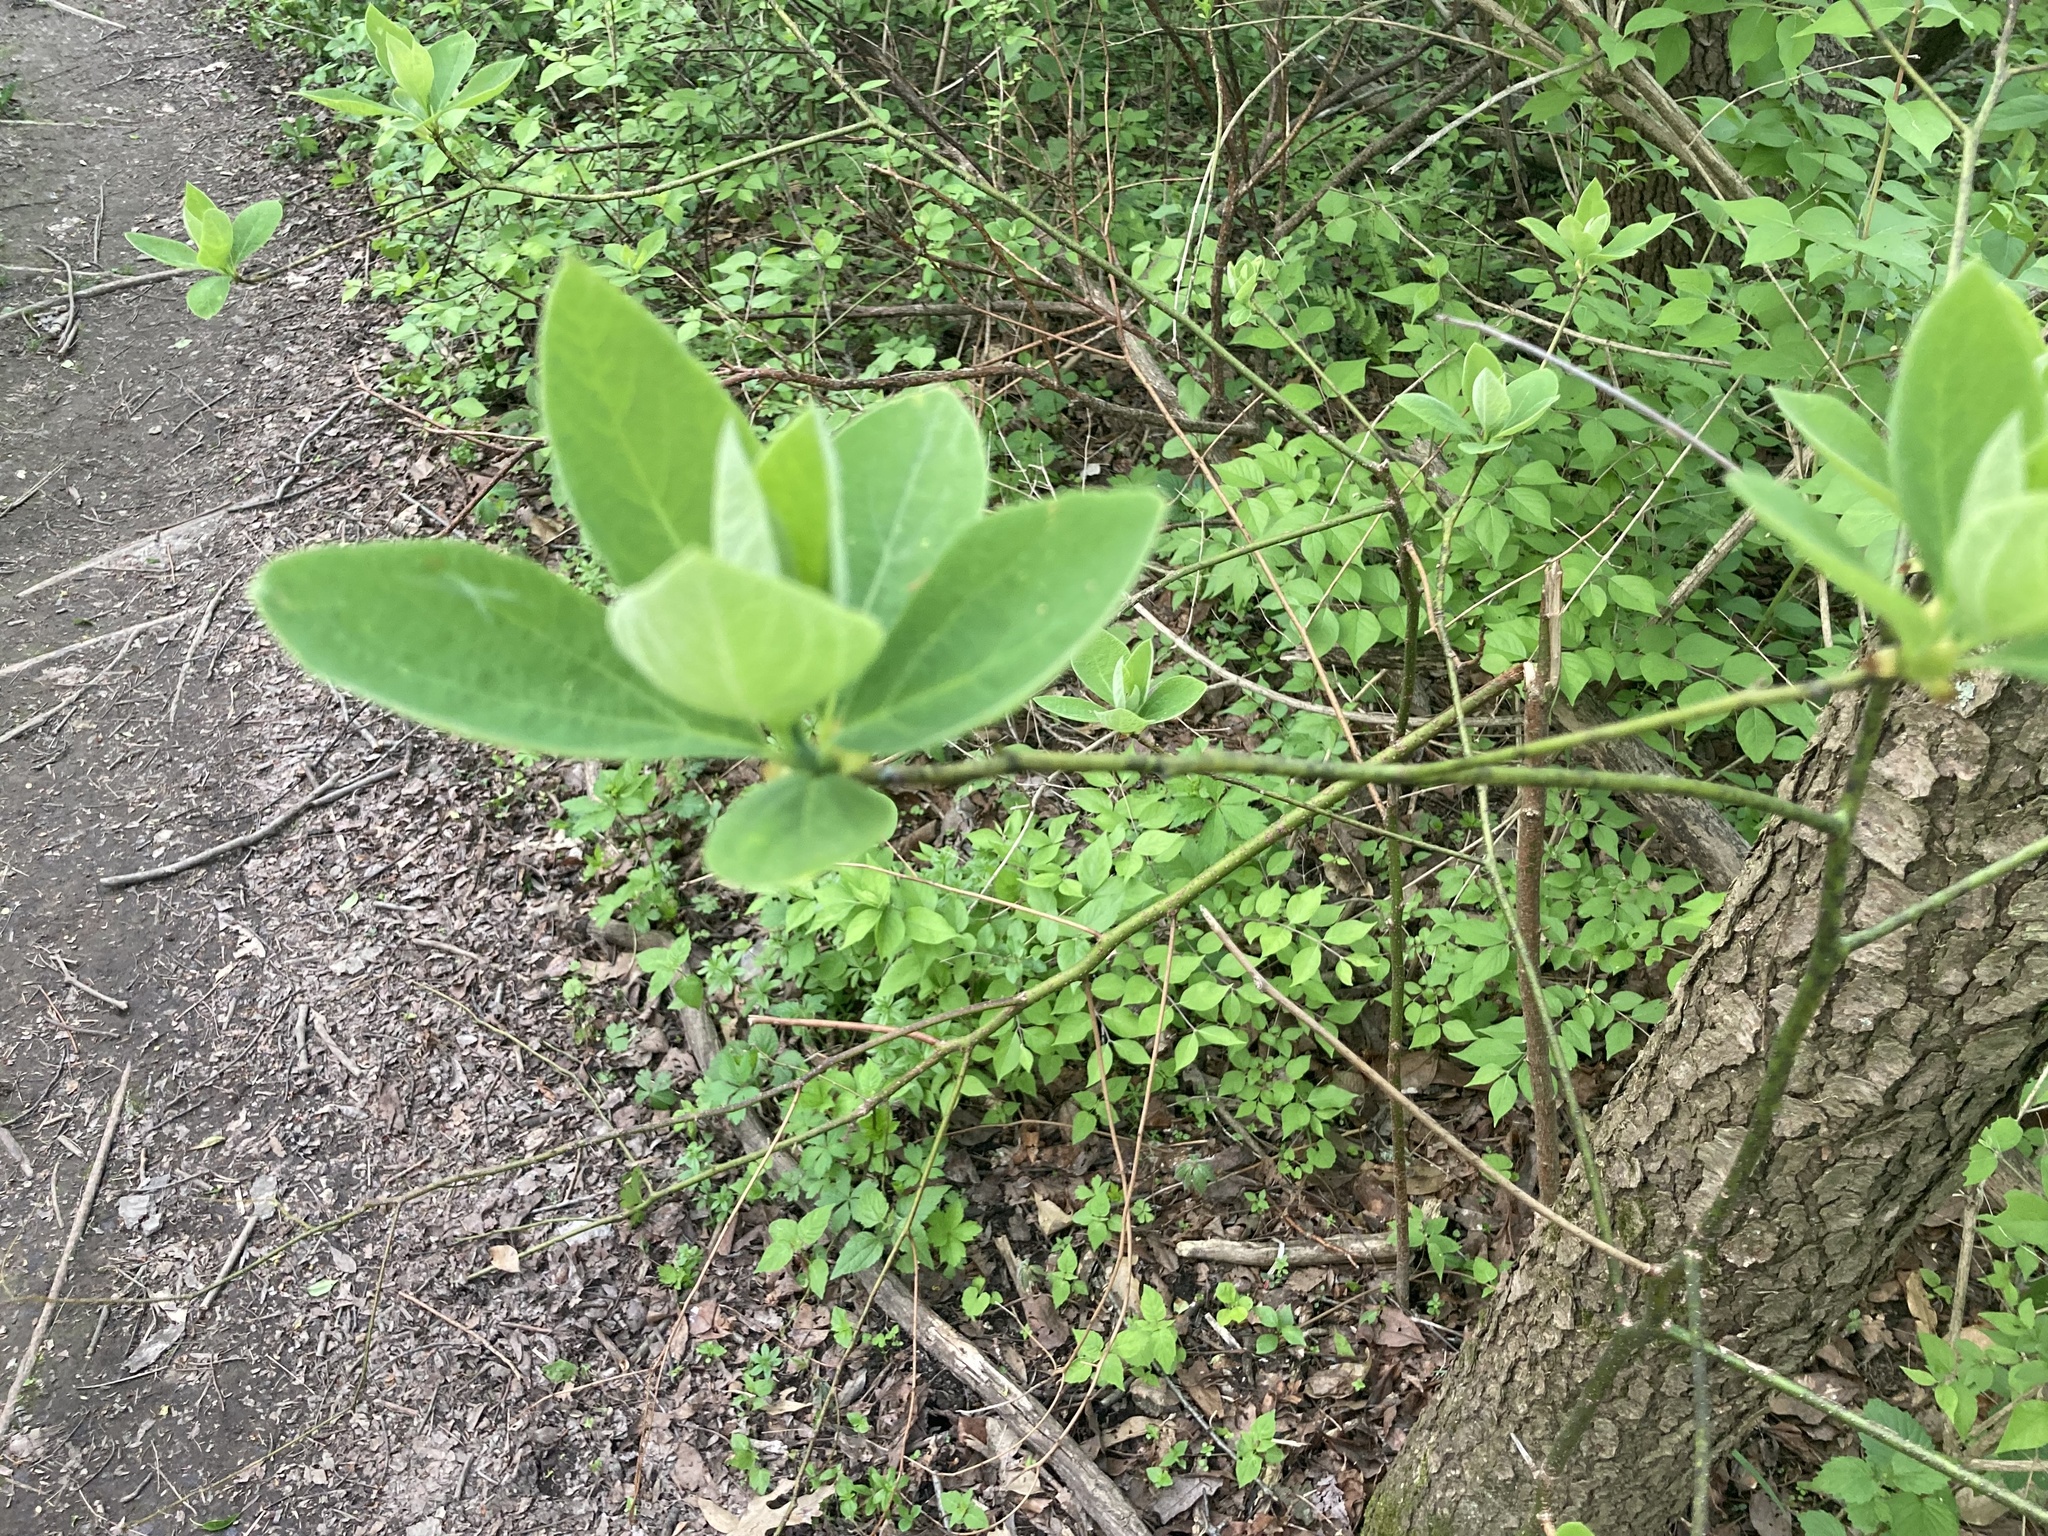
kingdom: Plantae
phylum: Tracheophyta
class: Magnoliopsida
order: Laurales
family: Lauraceae
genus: Sassafras
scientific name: Sassafras albidum
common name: Sassafras
